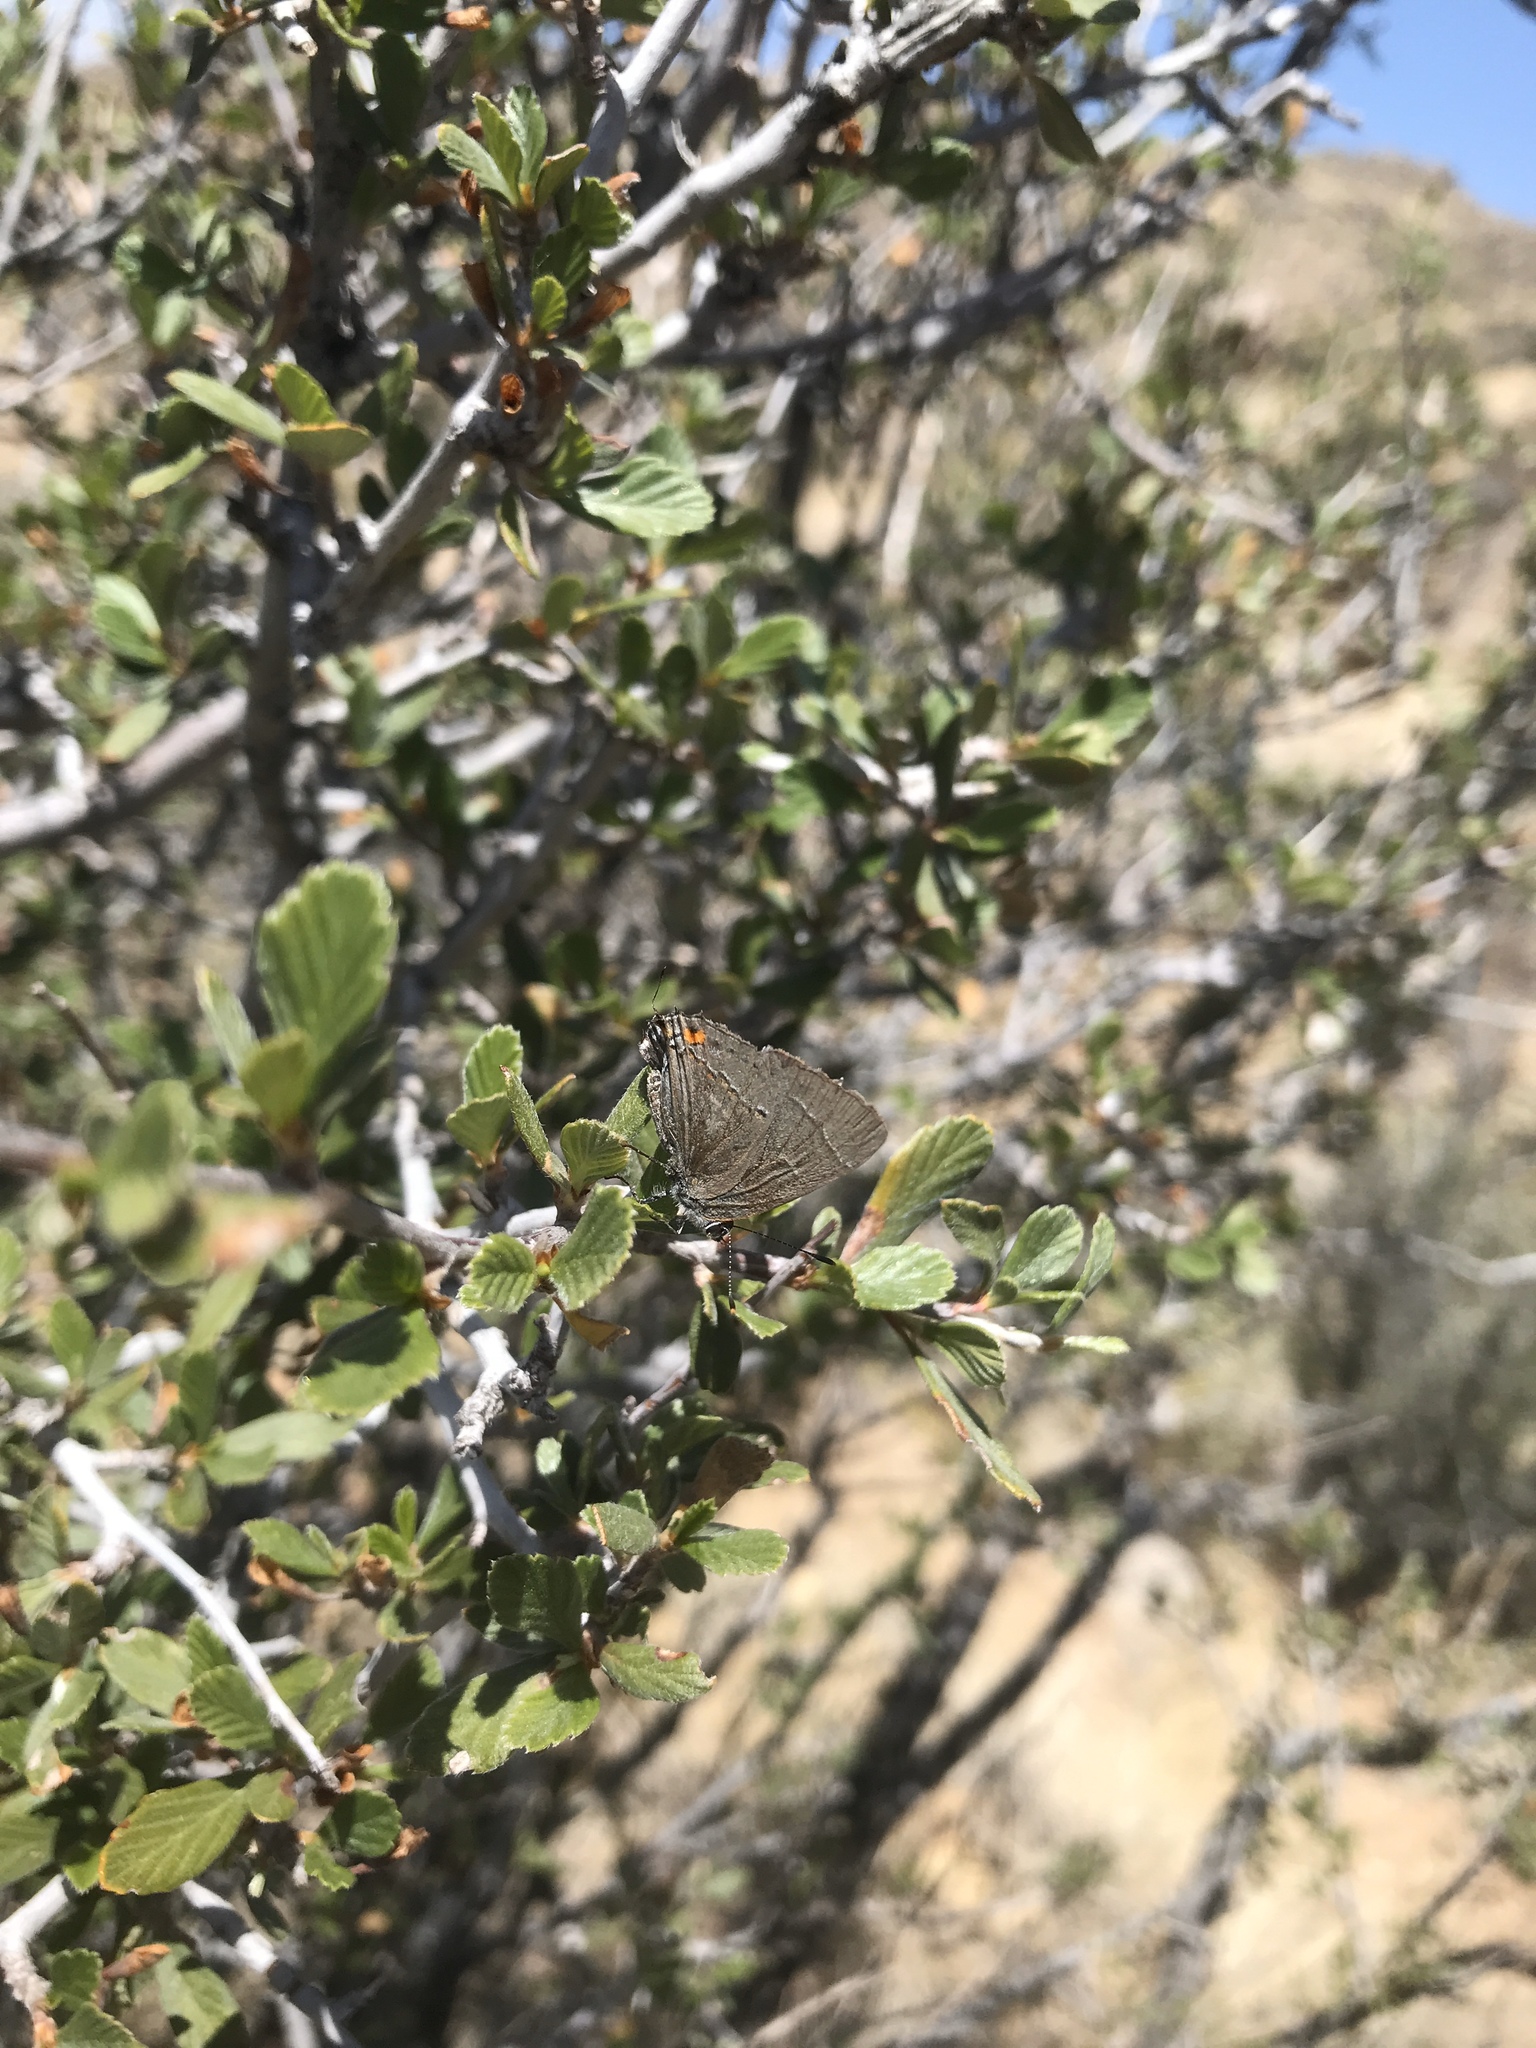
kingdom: Animalia
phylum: Arthropoda
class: Insecta
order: Lepidoptera
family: Lycaenidae
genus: Strymon
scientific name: Strymon melinus
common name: Gray hairstreak
